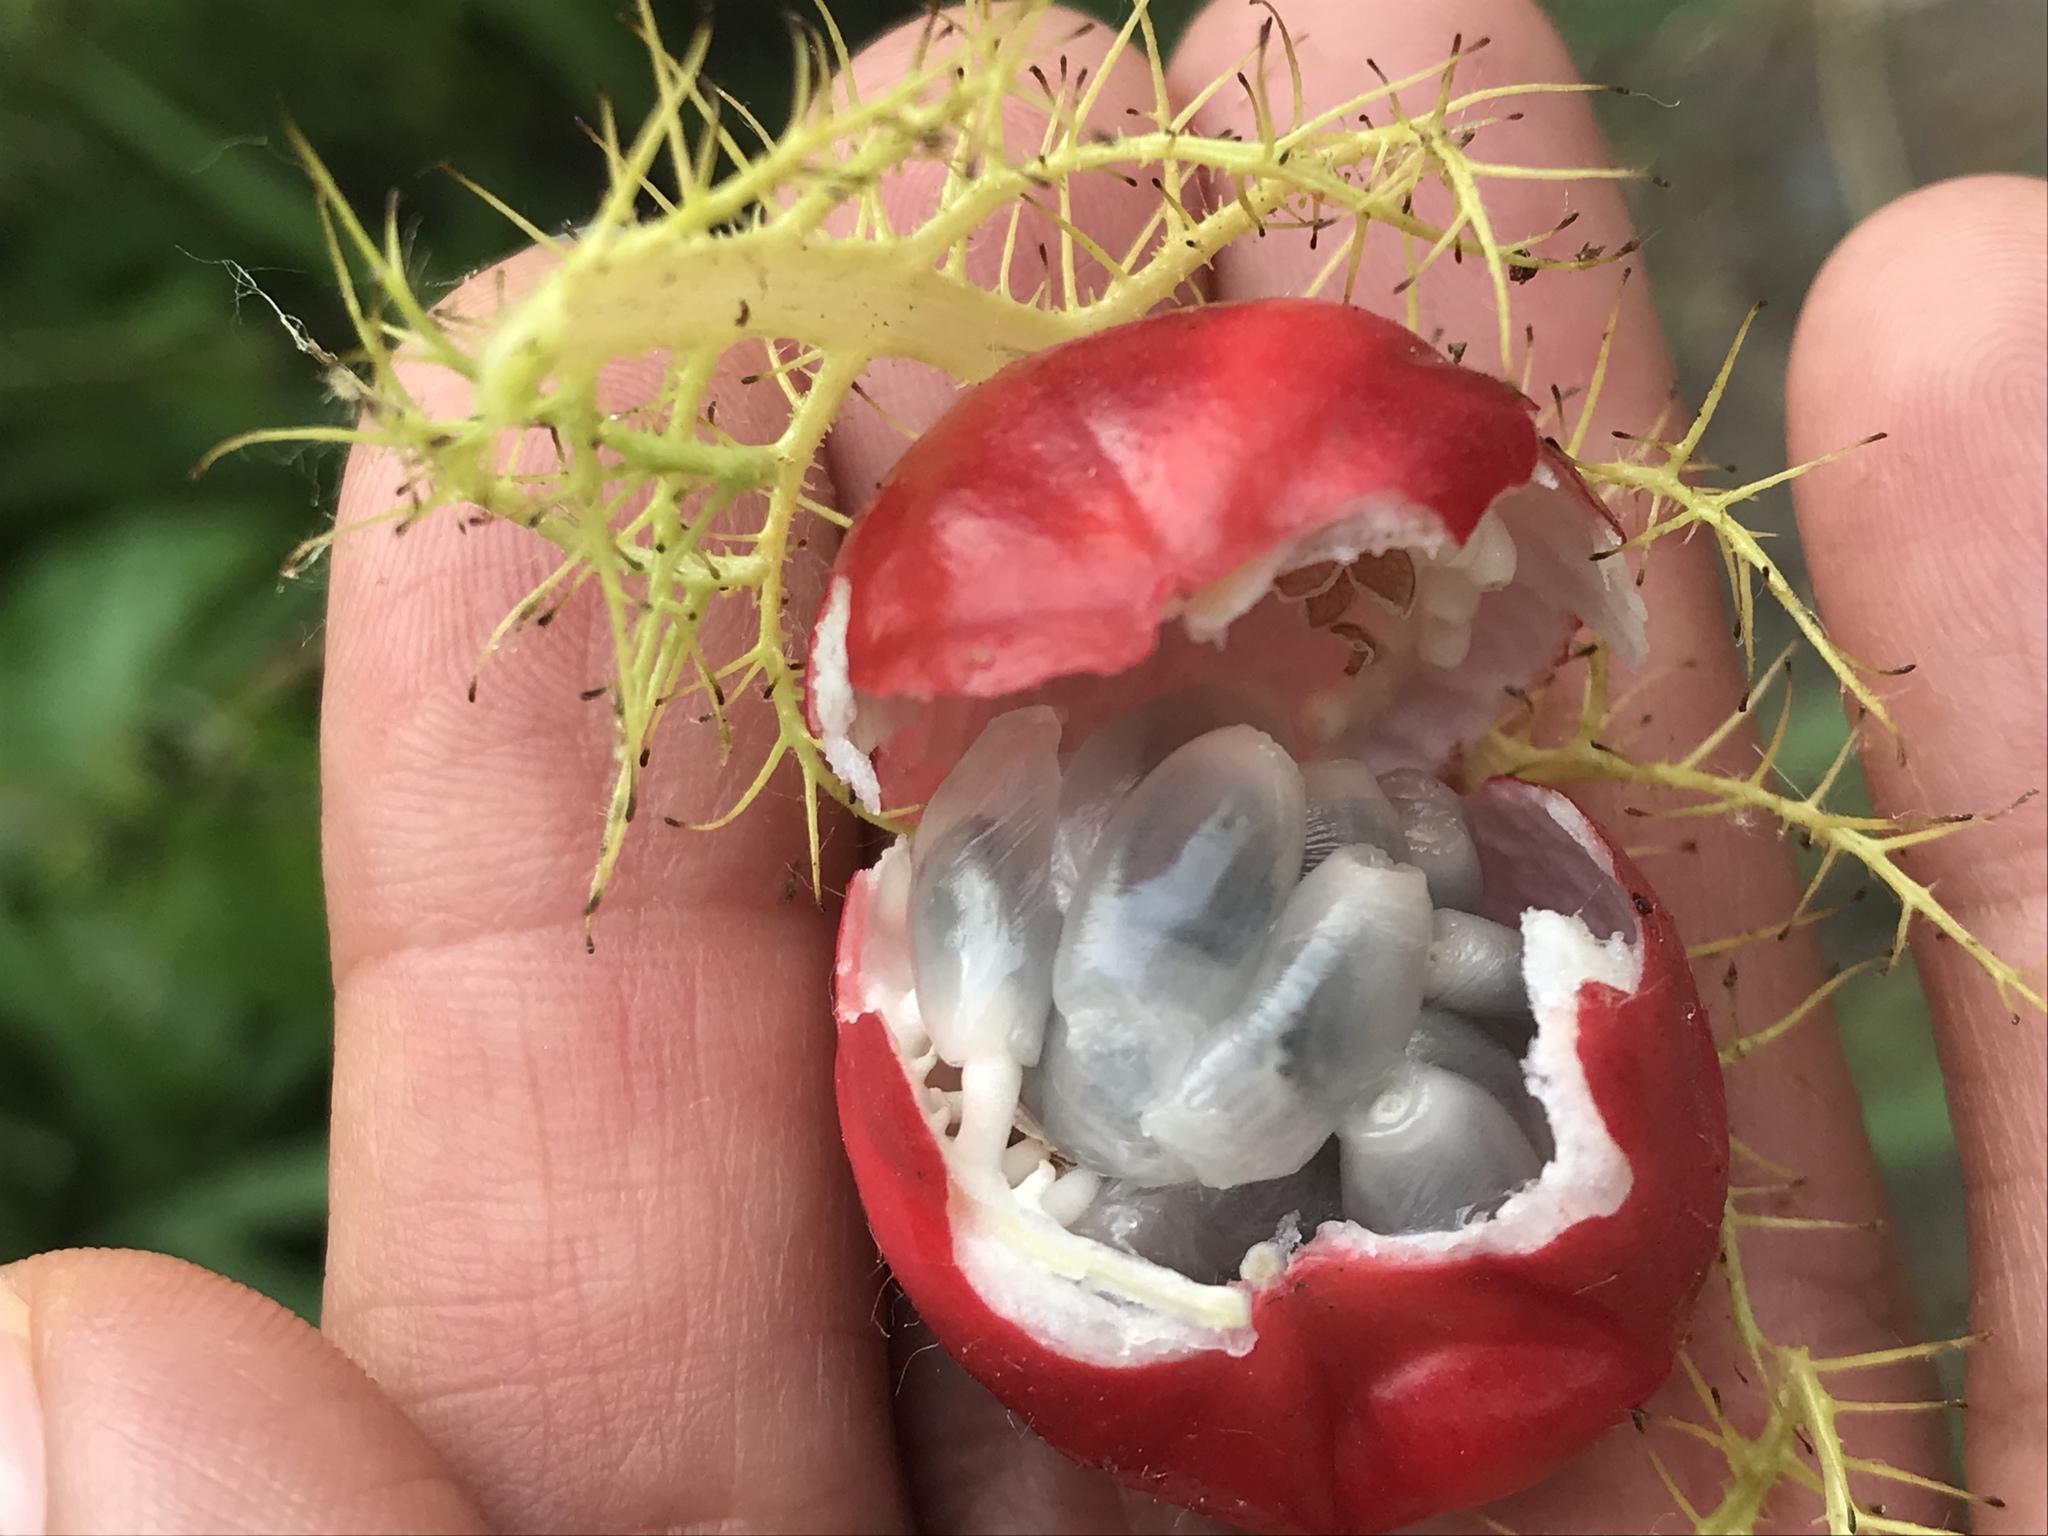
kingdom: Plantae
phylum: Tracheophyta
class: Magnoliopsida
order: Malpighiales
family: Passifloraceae
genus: Passiflora
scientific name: Passiflora foetida
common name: Fetid passionflower
